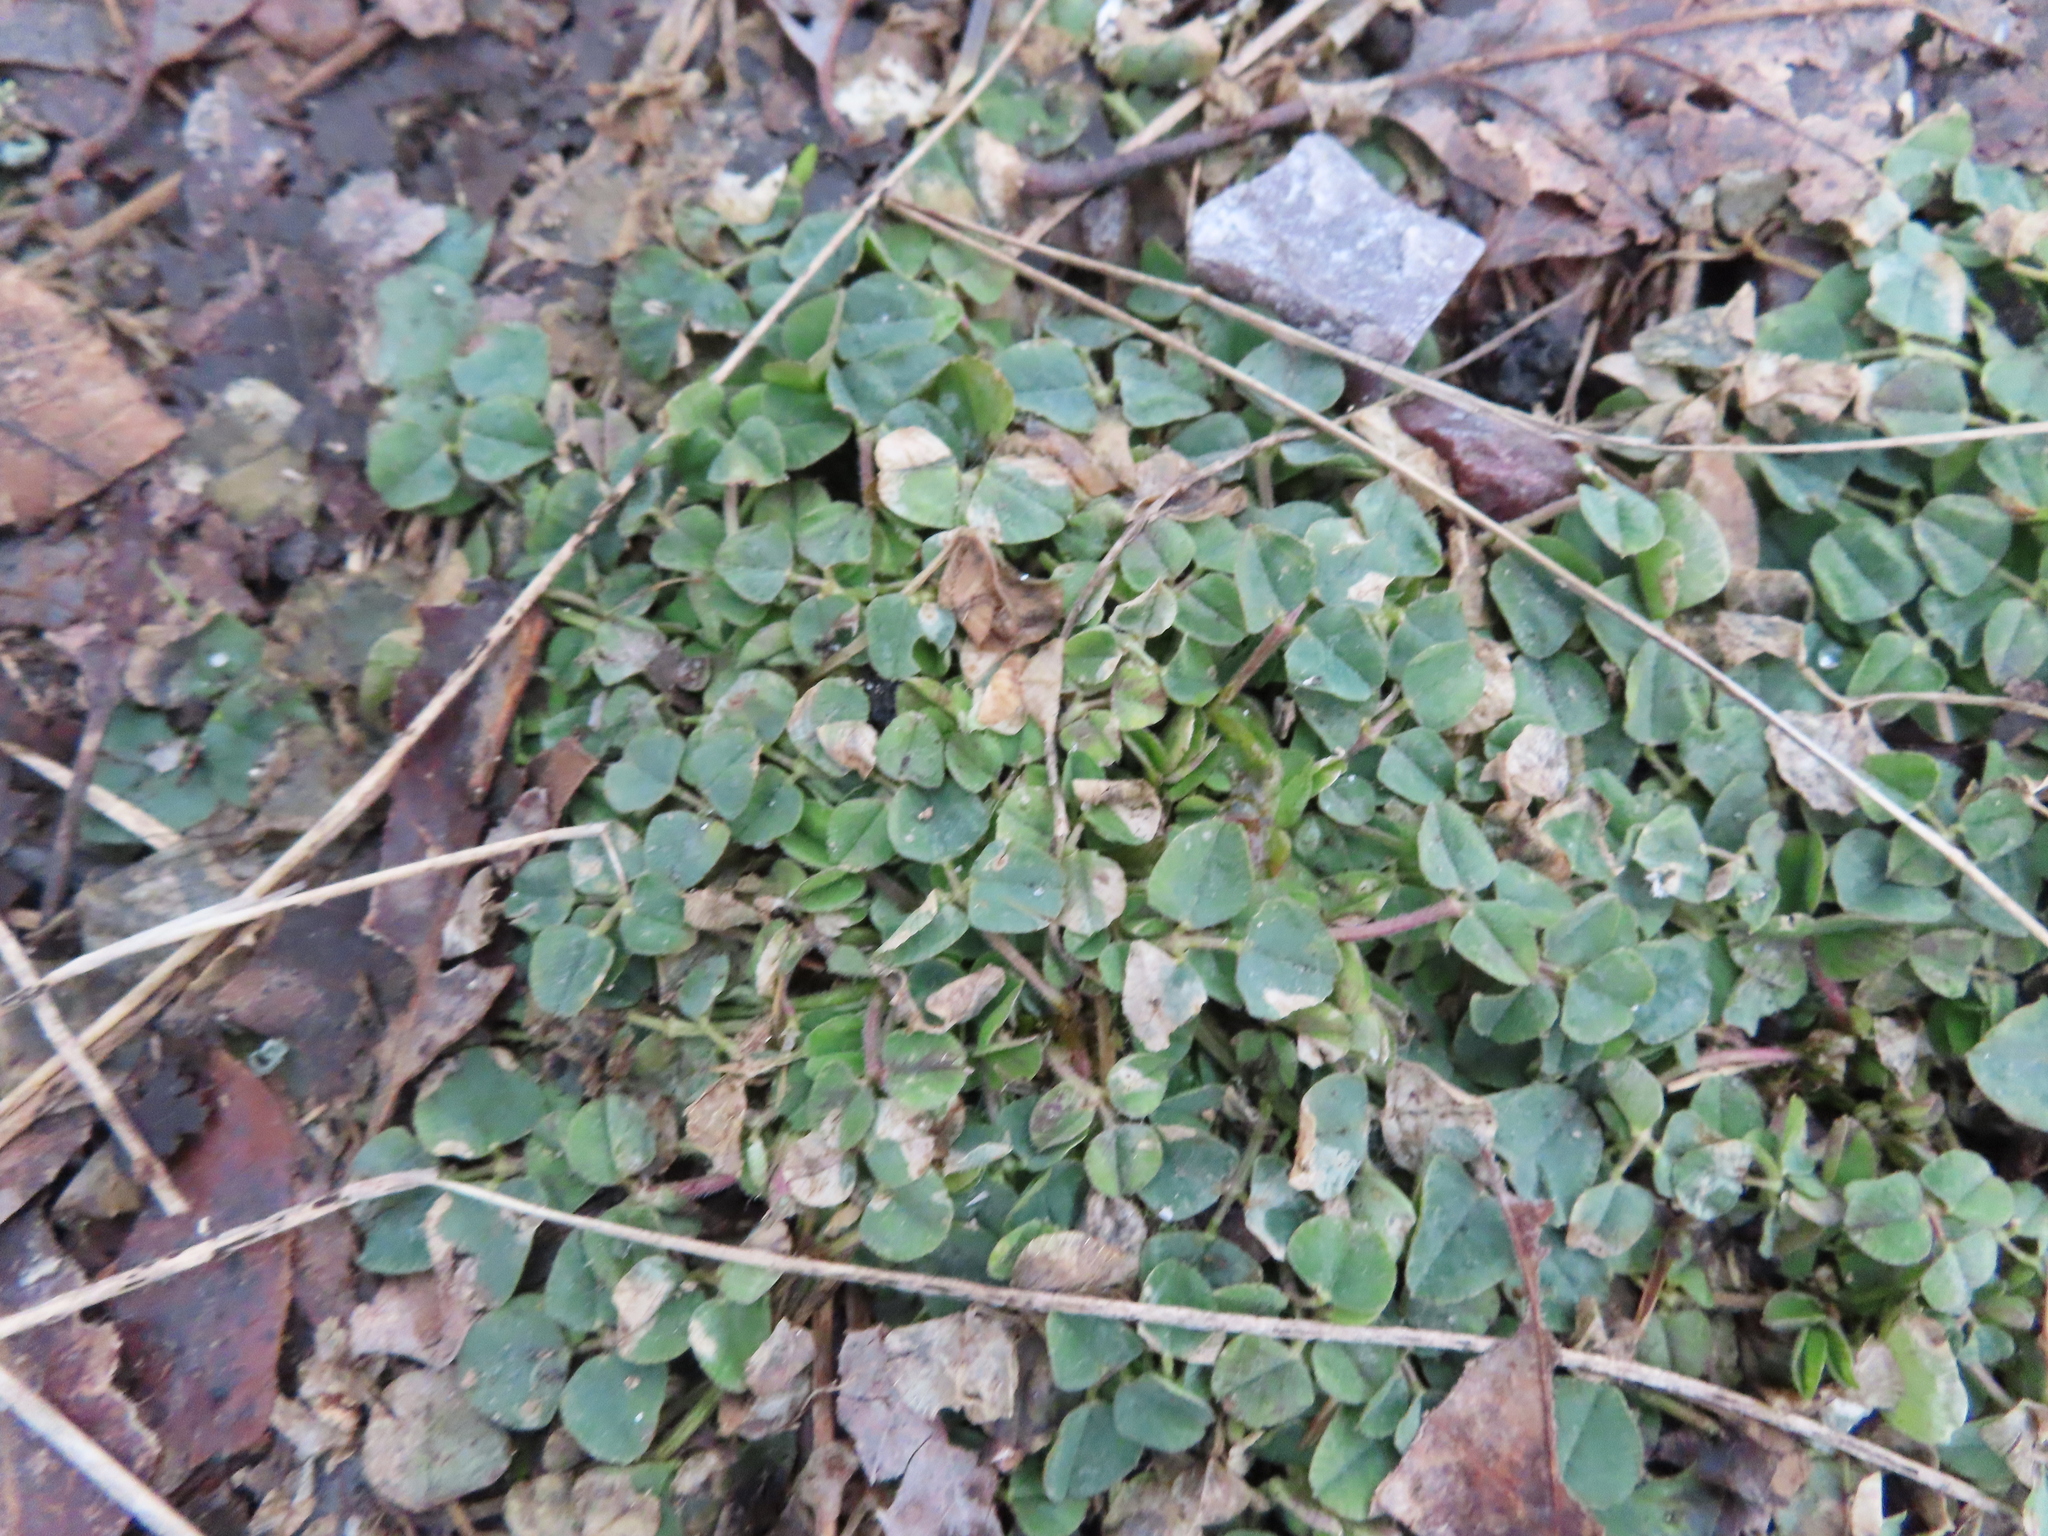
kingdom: Plantae
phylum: Tracheophyta
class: Magnoliopsida
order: Fabales
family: Fabaceae
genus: Medicago
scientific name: Medicago lupulina
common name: Black medick
